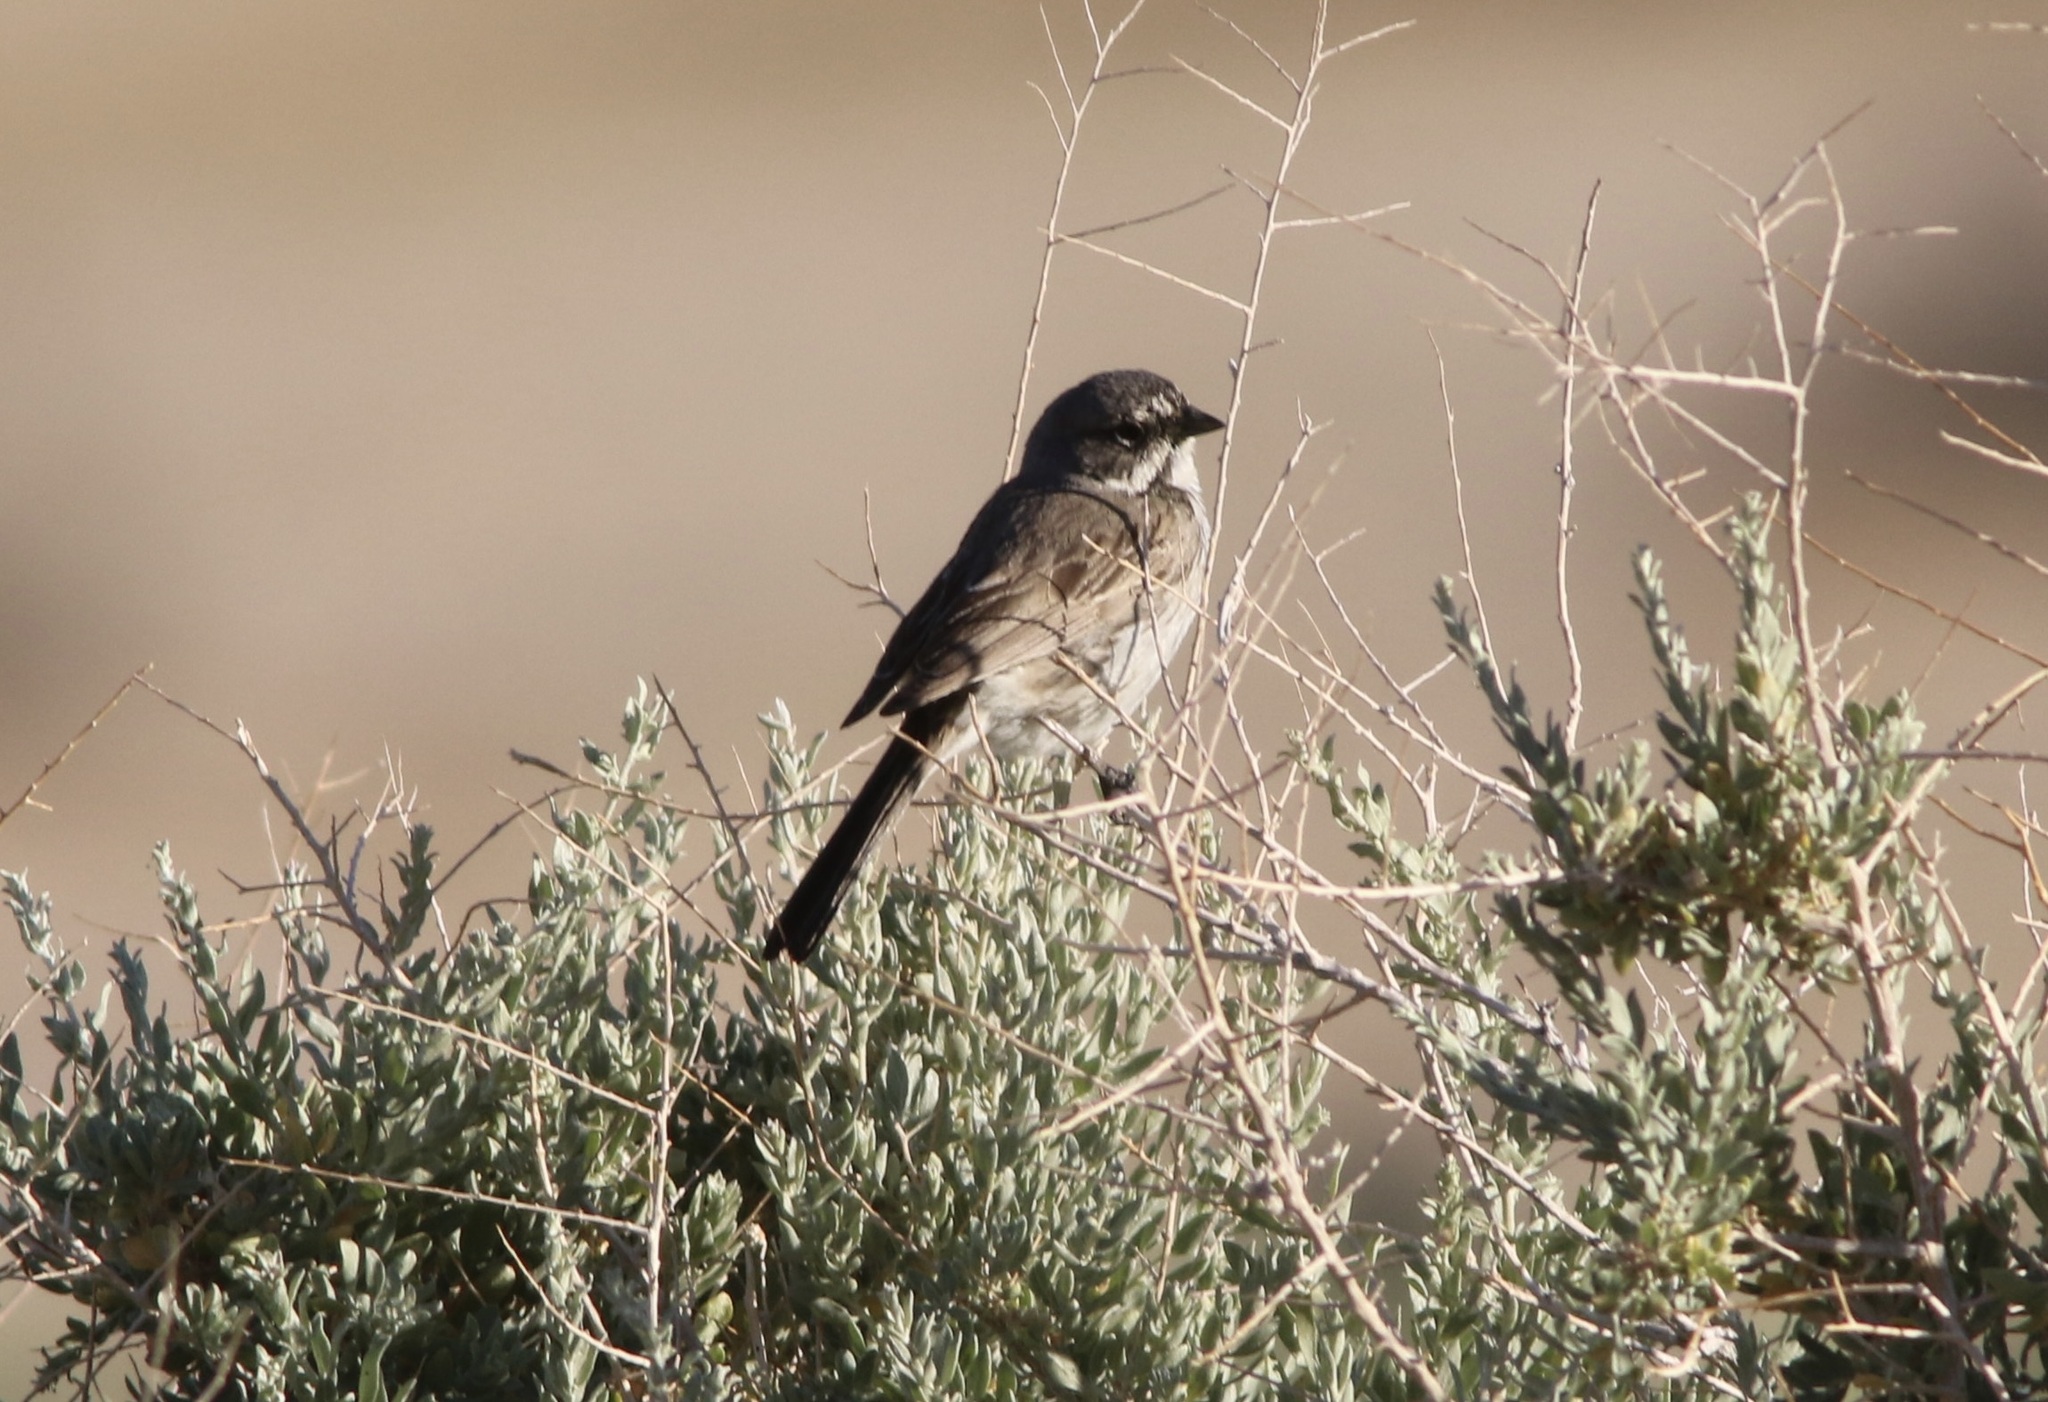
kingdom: Animalia
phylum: Chordata
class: Aves
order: Passeriformes
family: Passerellidae
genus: Artemisiospiza
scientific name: Artemisiospiza belli
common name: Bell's sparrow
